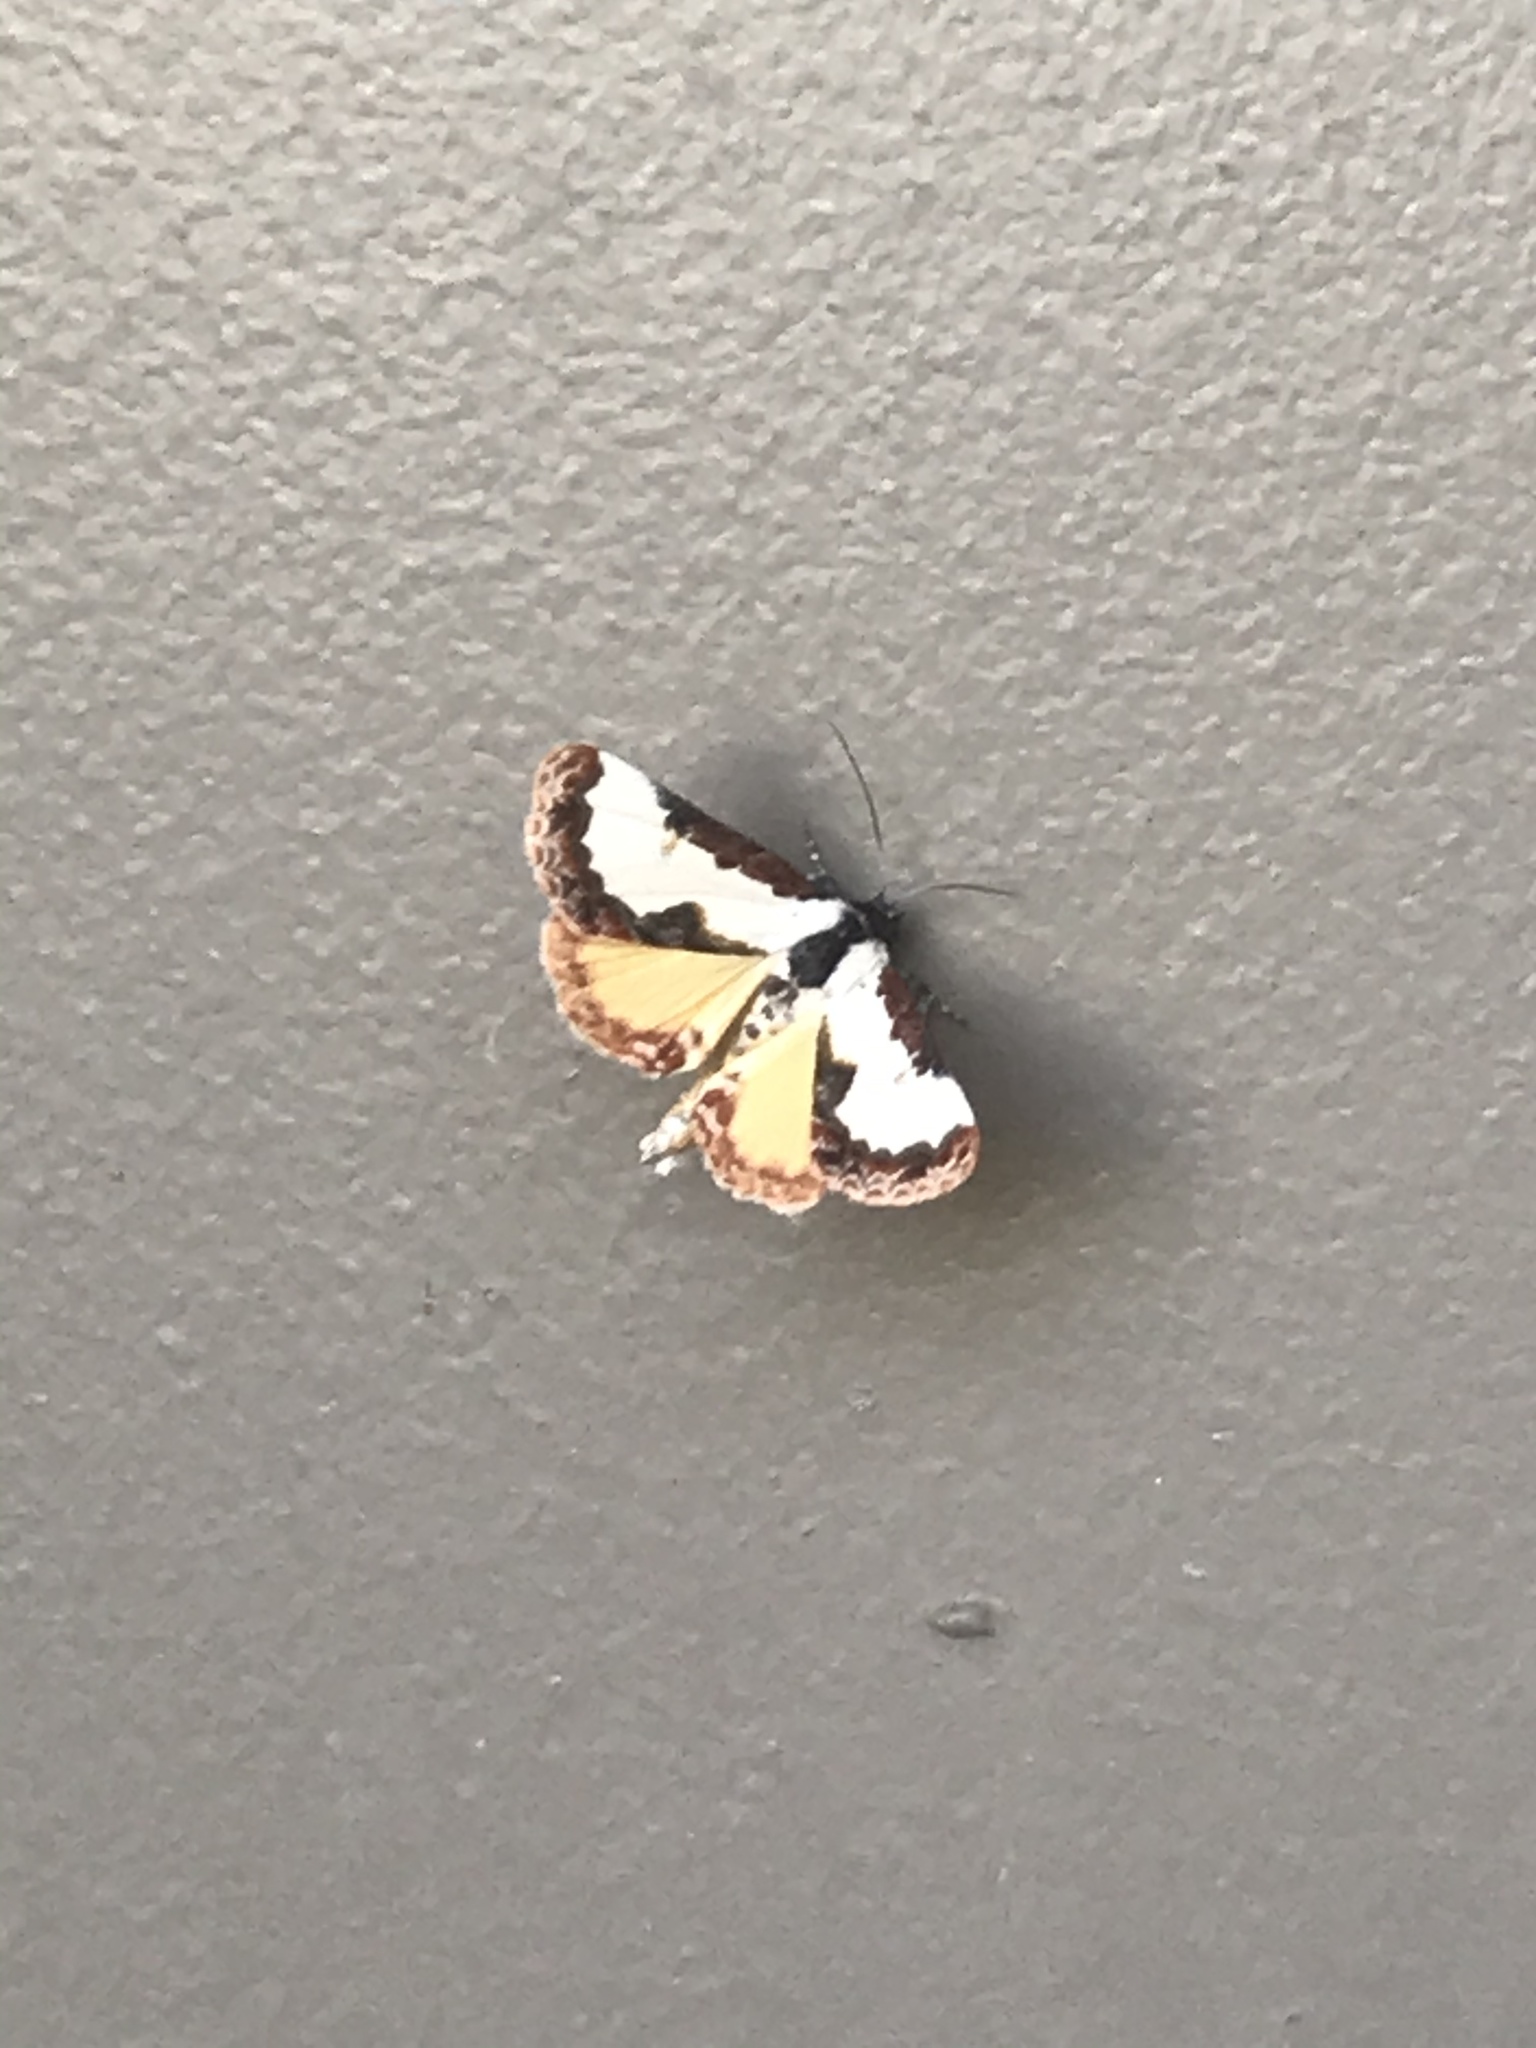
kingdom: Animalia
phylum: Arthropoda
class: Insecta
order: Lepidoptera
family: Noctuidae
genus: Eudryas
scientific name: Eudryas unio
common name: Pearly wood-nymph
